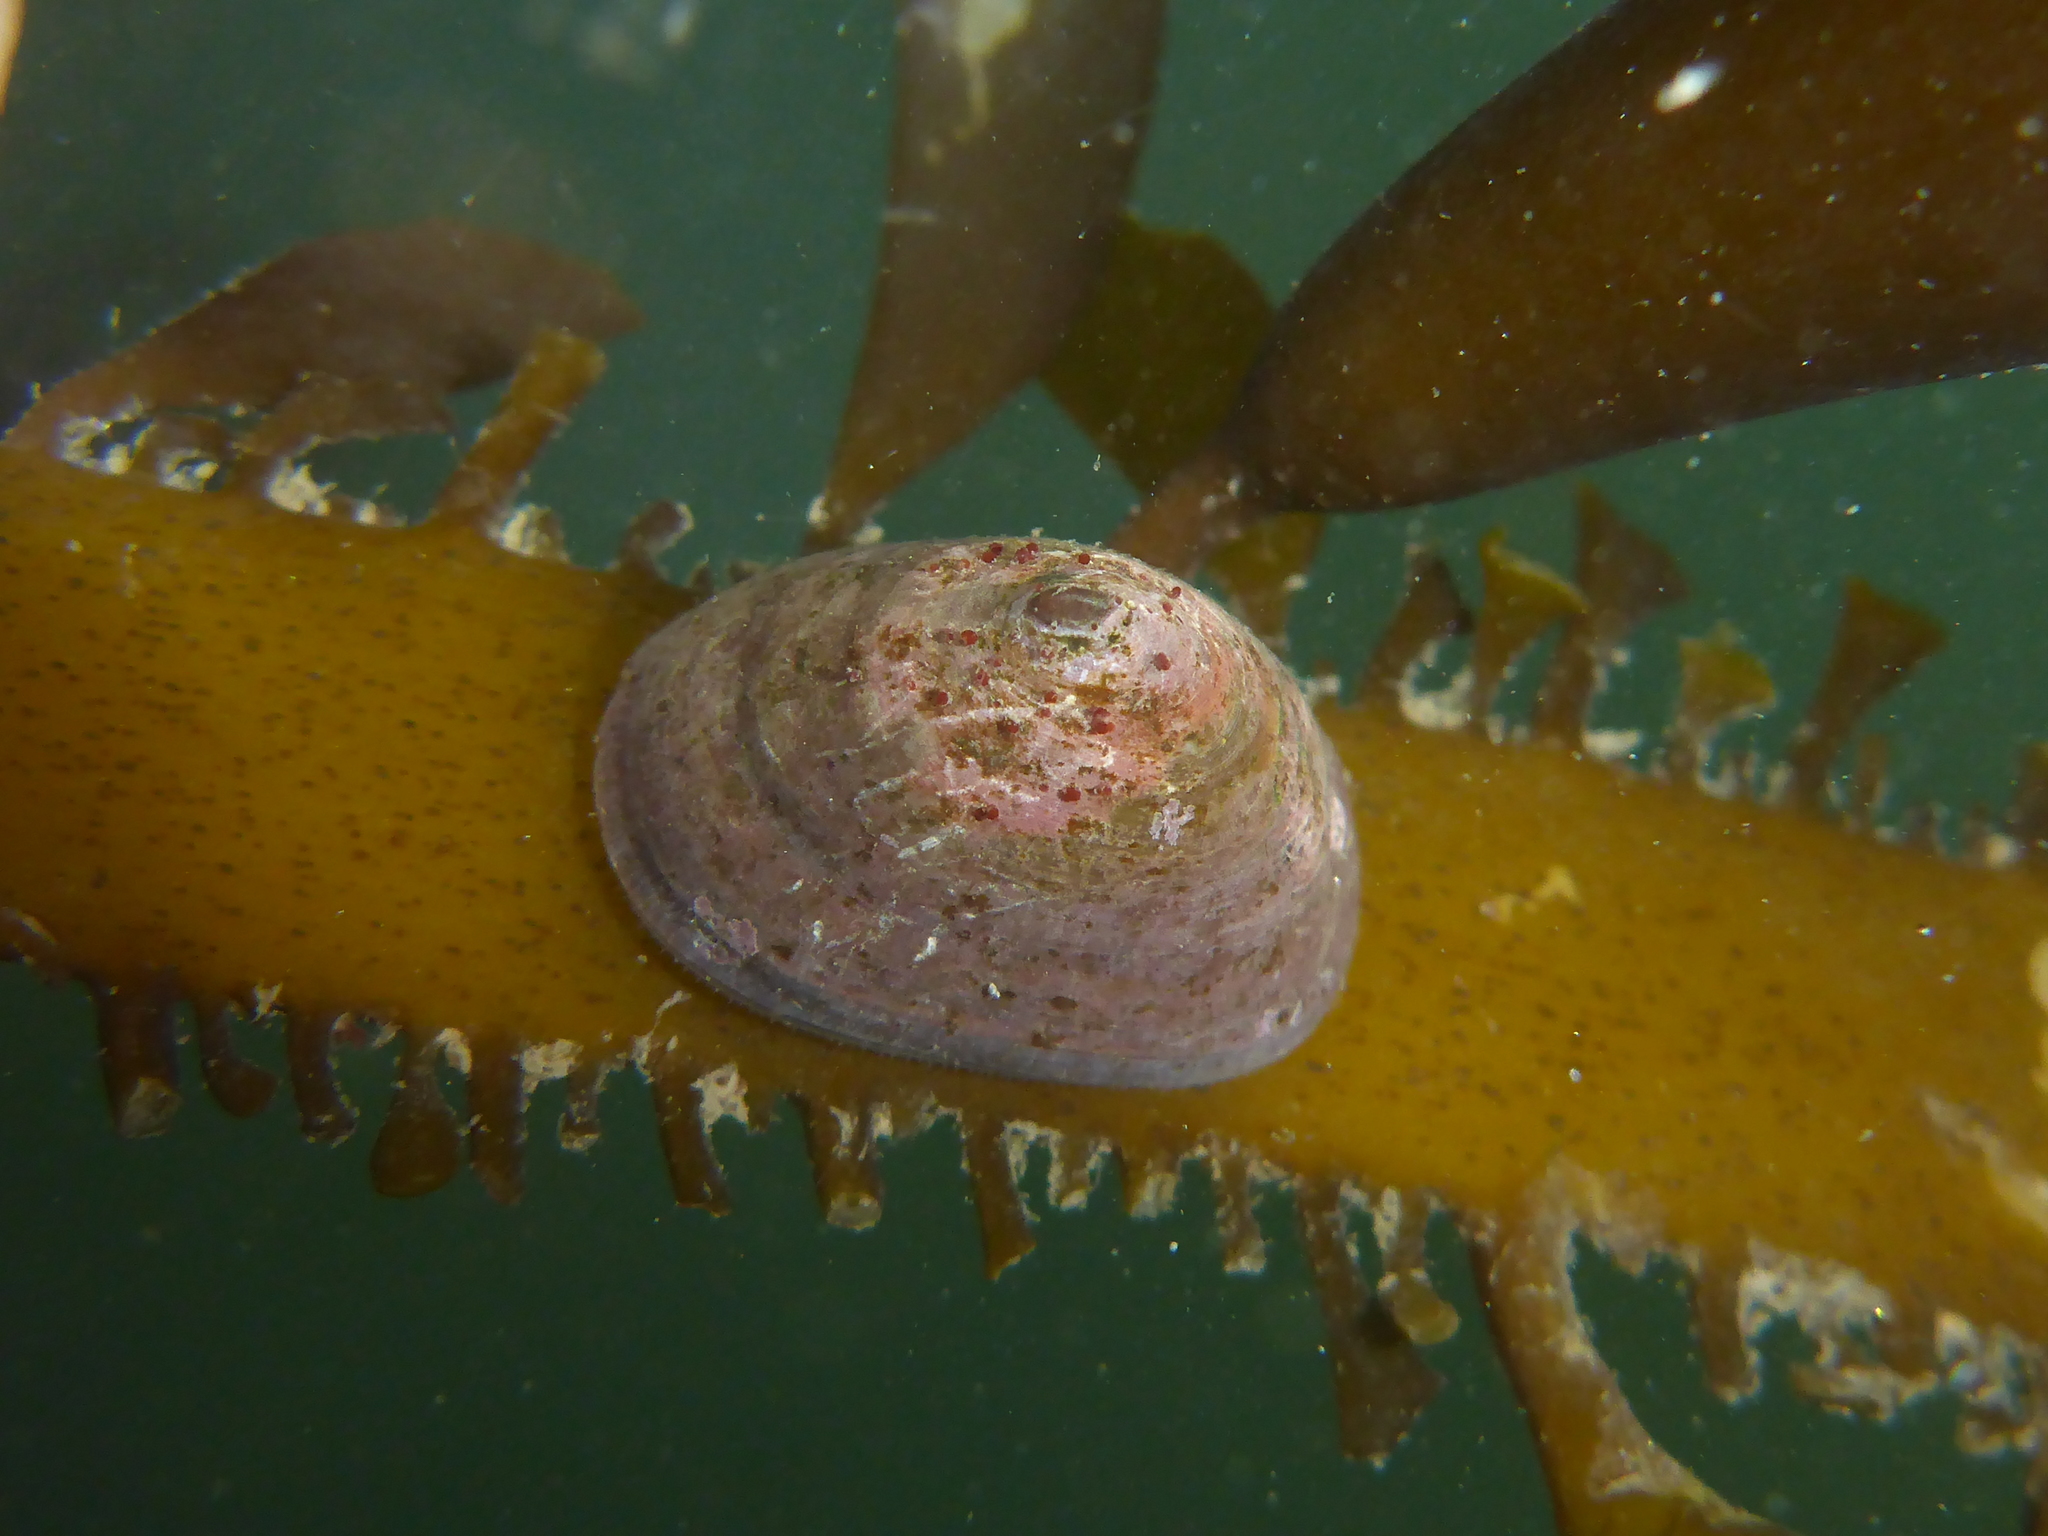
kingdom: Animalia
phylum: Mollusca
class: Gastropoda
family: Lottiidae
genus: Discurria
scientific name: Discurria insessa
